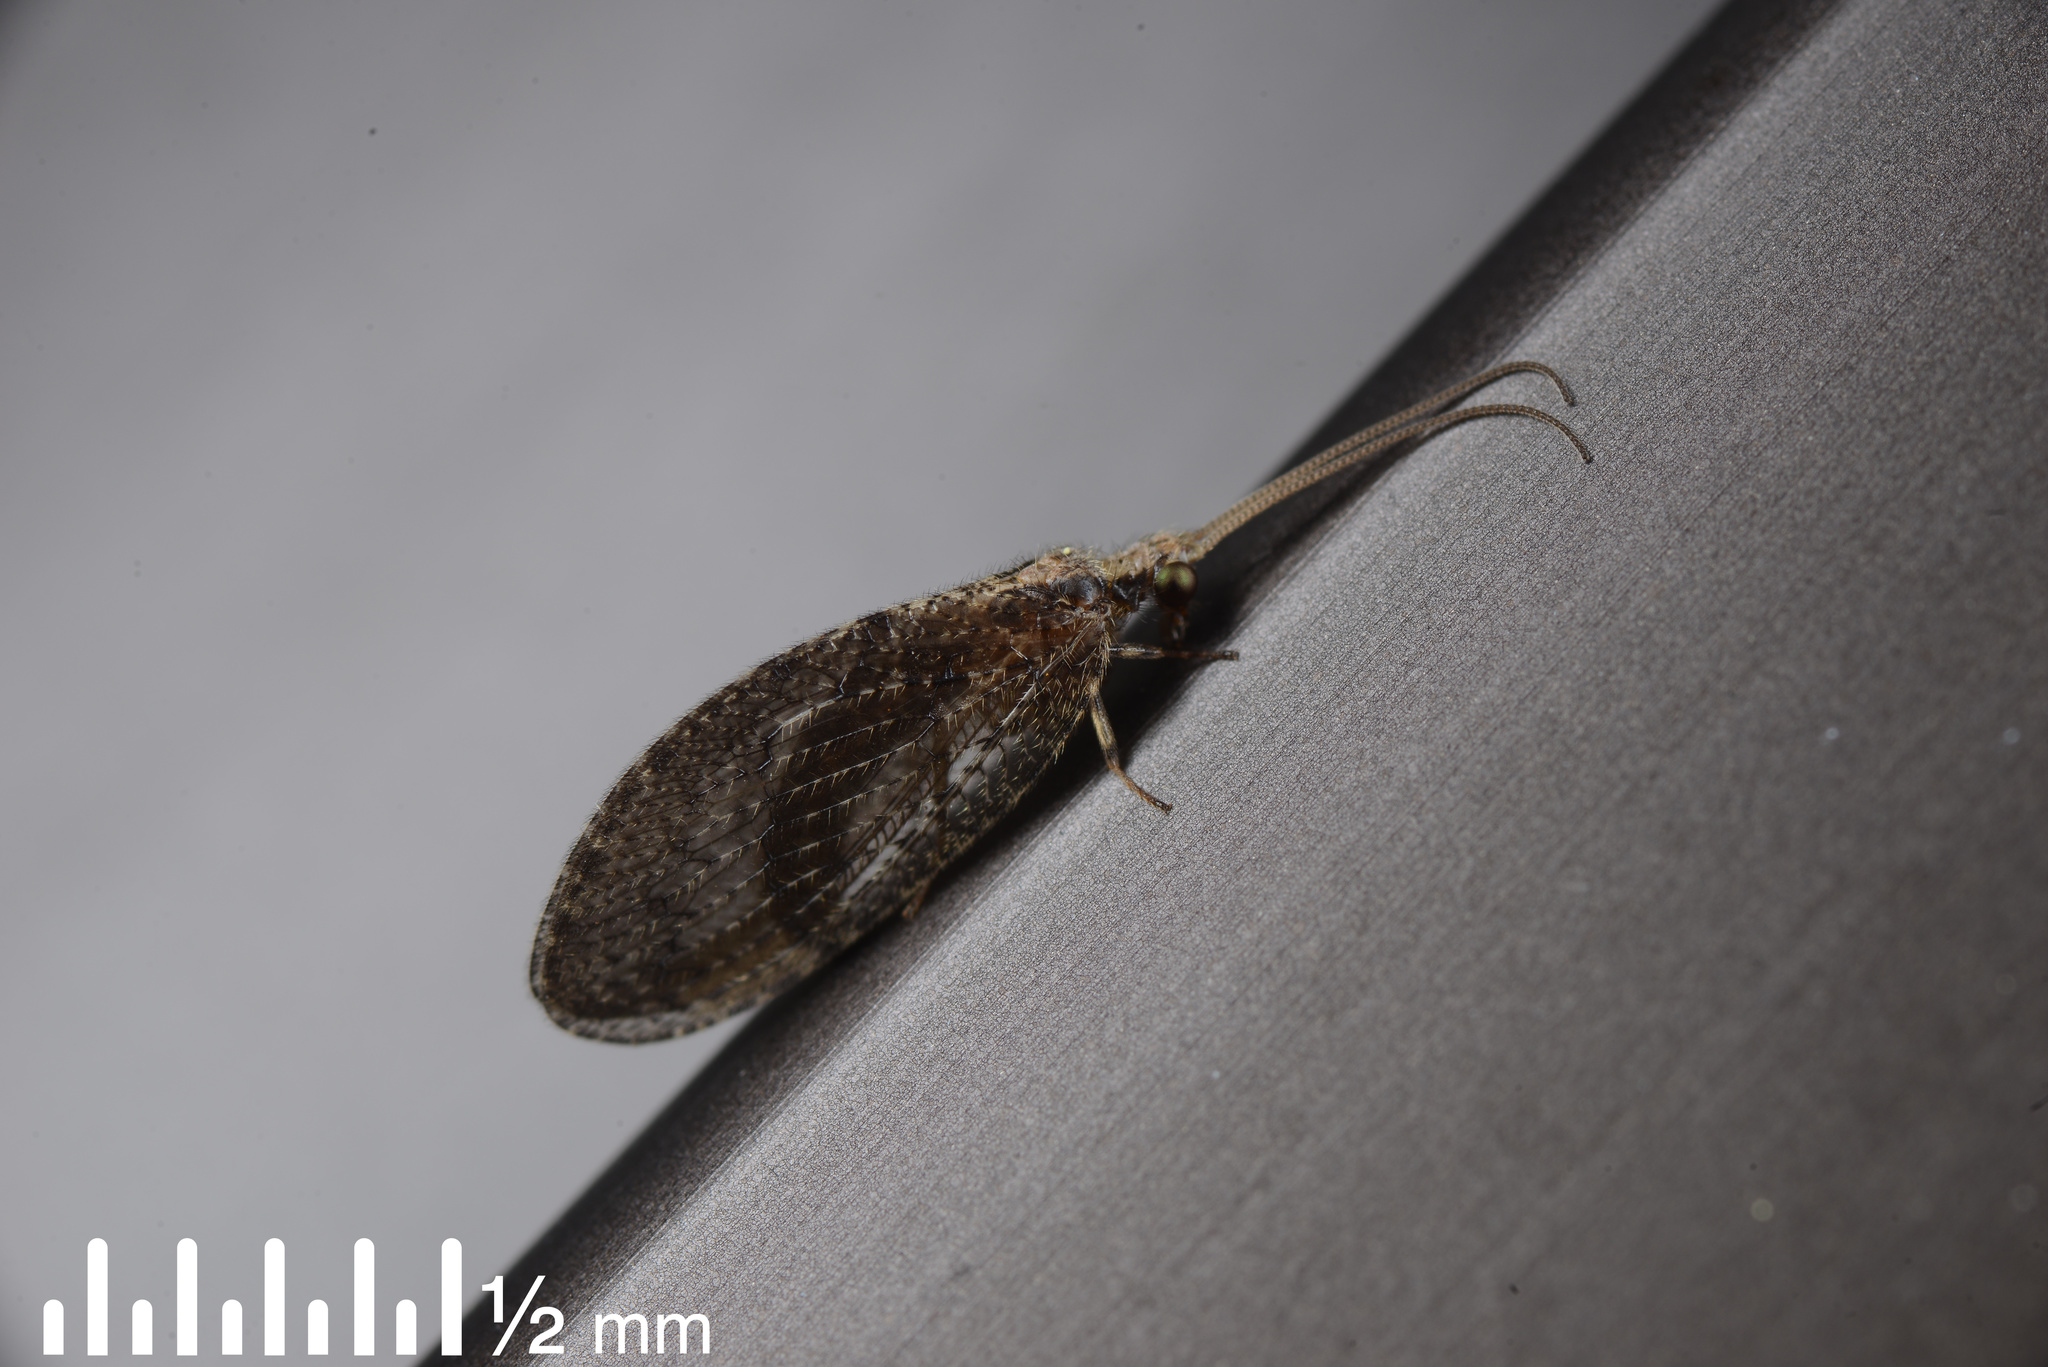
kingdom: Animalia
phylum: Arthropoda
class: Insecta
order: Neuroptera
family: Hemerobiidae
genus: Wesmaelius
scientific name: Wesmaelius subnebulosus
